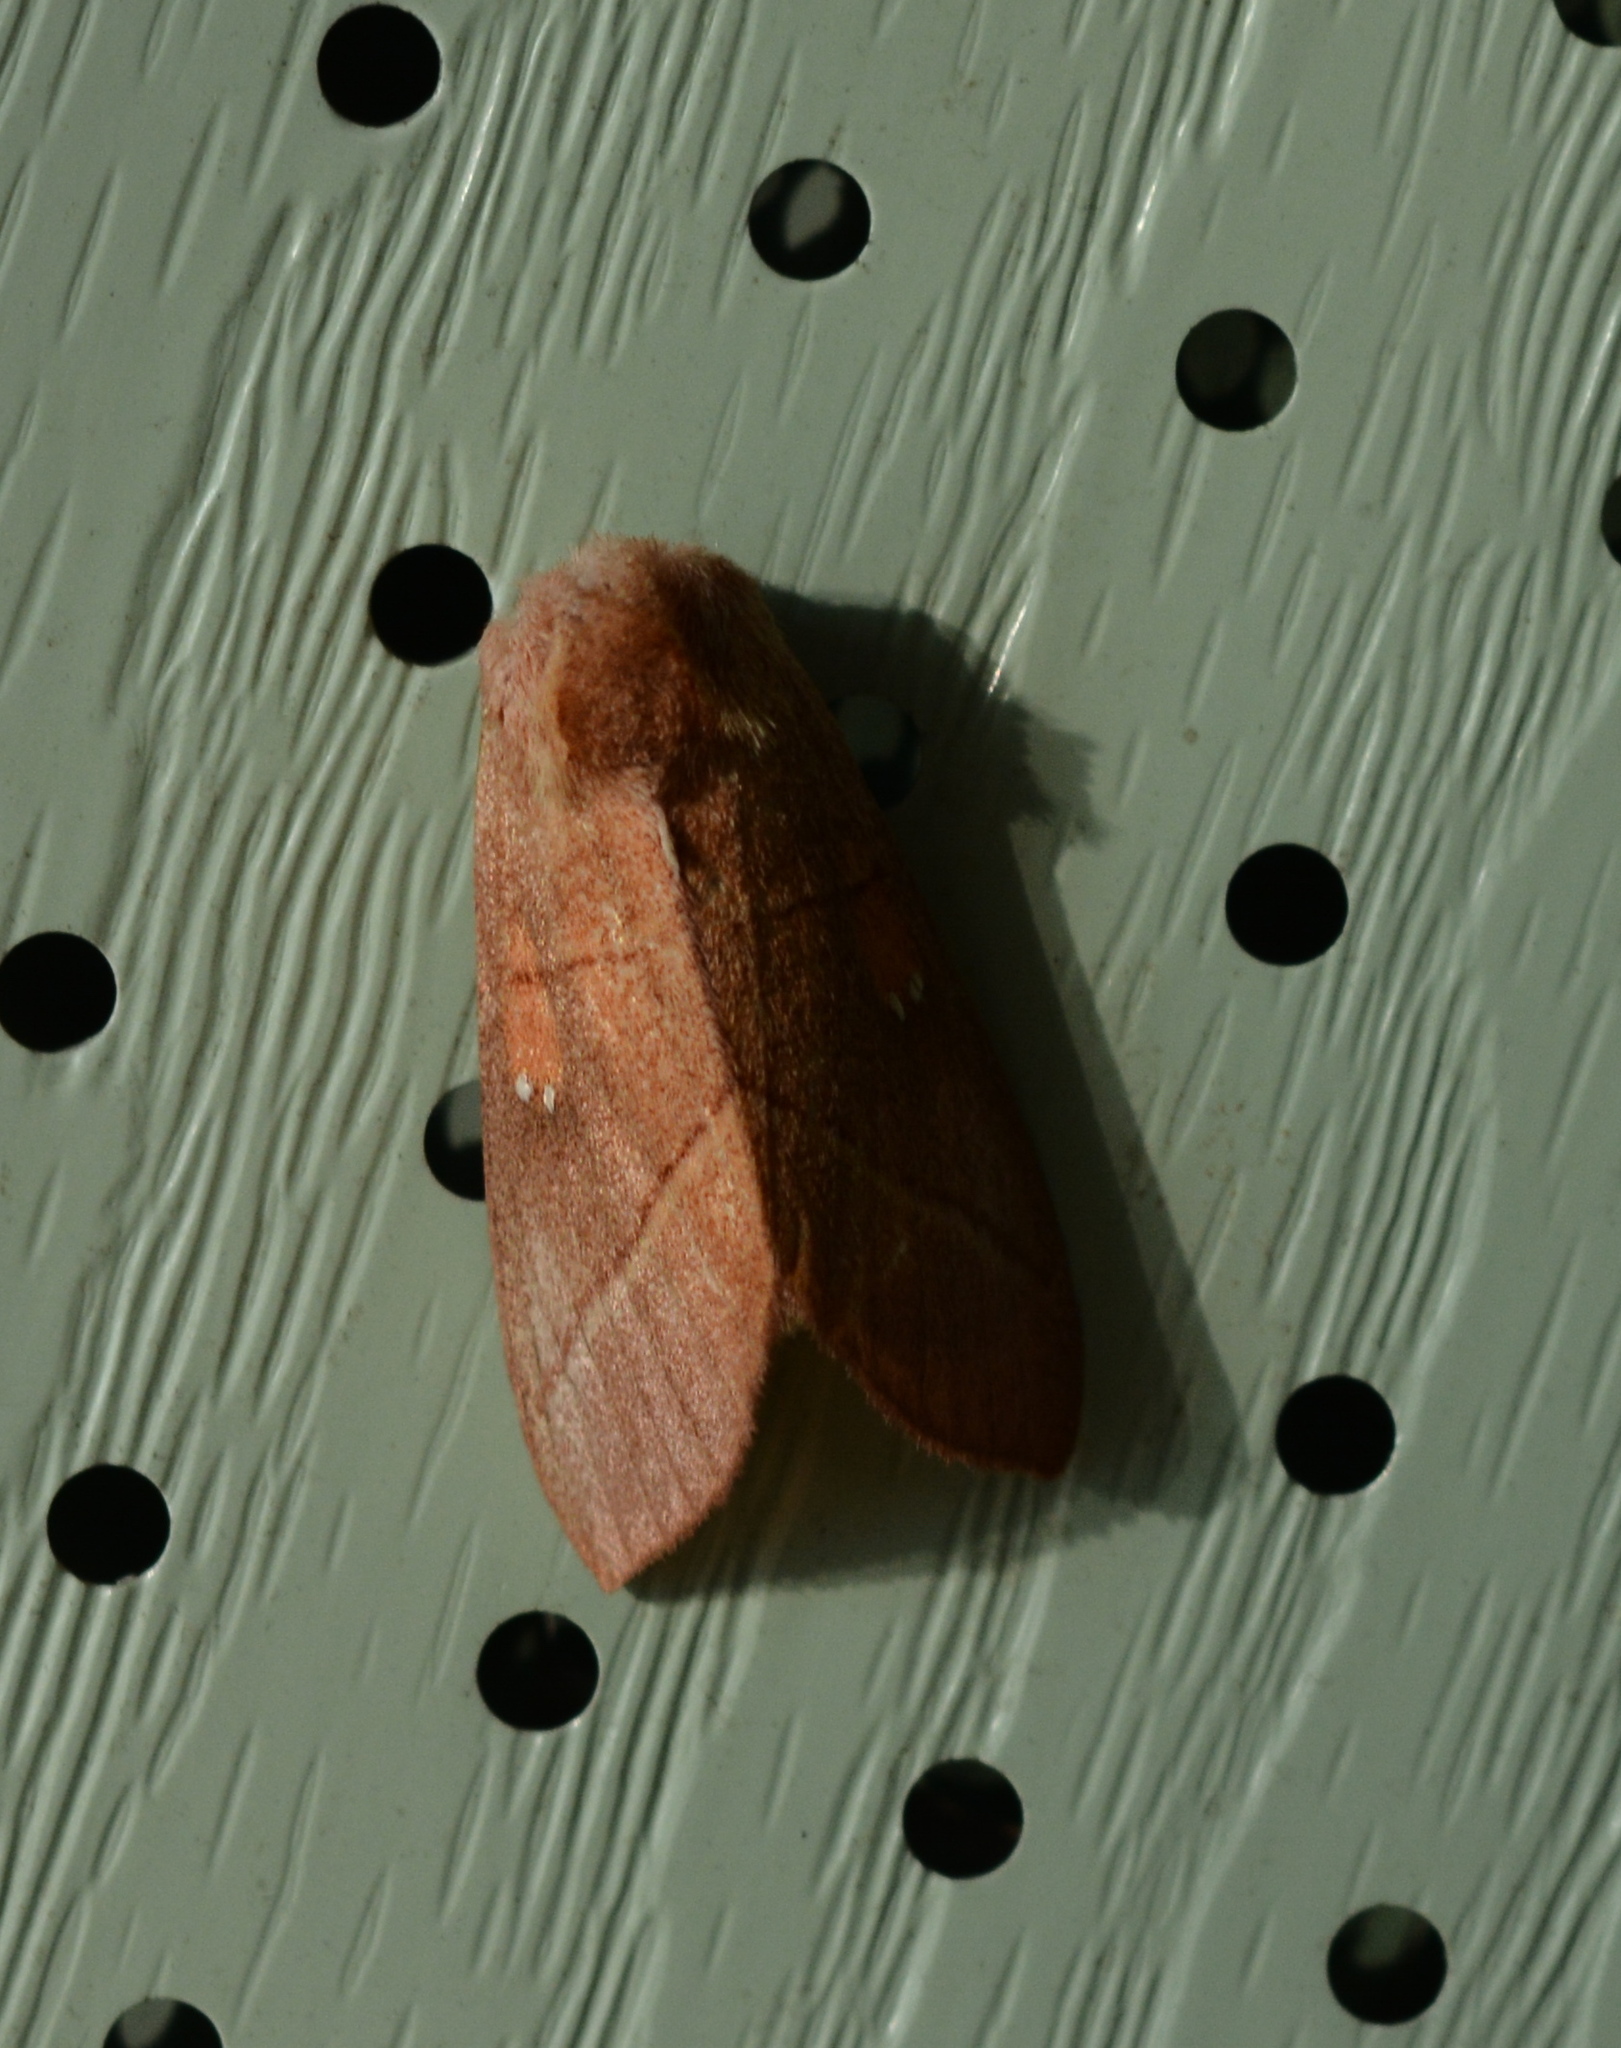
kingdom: Animalia
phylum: Arthropoda
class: Insecta
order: Lepidoptera
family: Notodontidae
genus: Nadata
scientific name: Nadata gibbosa
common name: White-dotted prominent
